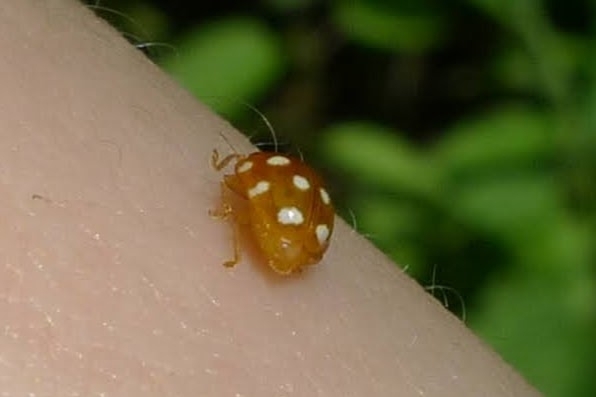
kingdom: Animalia
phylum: Arthropoda
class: Insecta
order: Coleoptera
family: Coccinellidae
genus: Vibidia
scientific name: Vibidia duodecimguttata
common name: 12-spot ladybird
